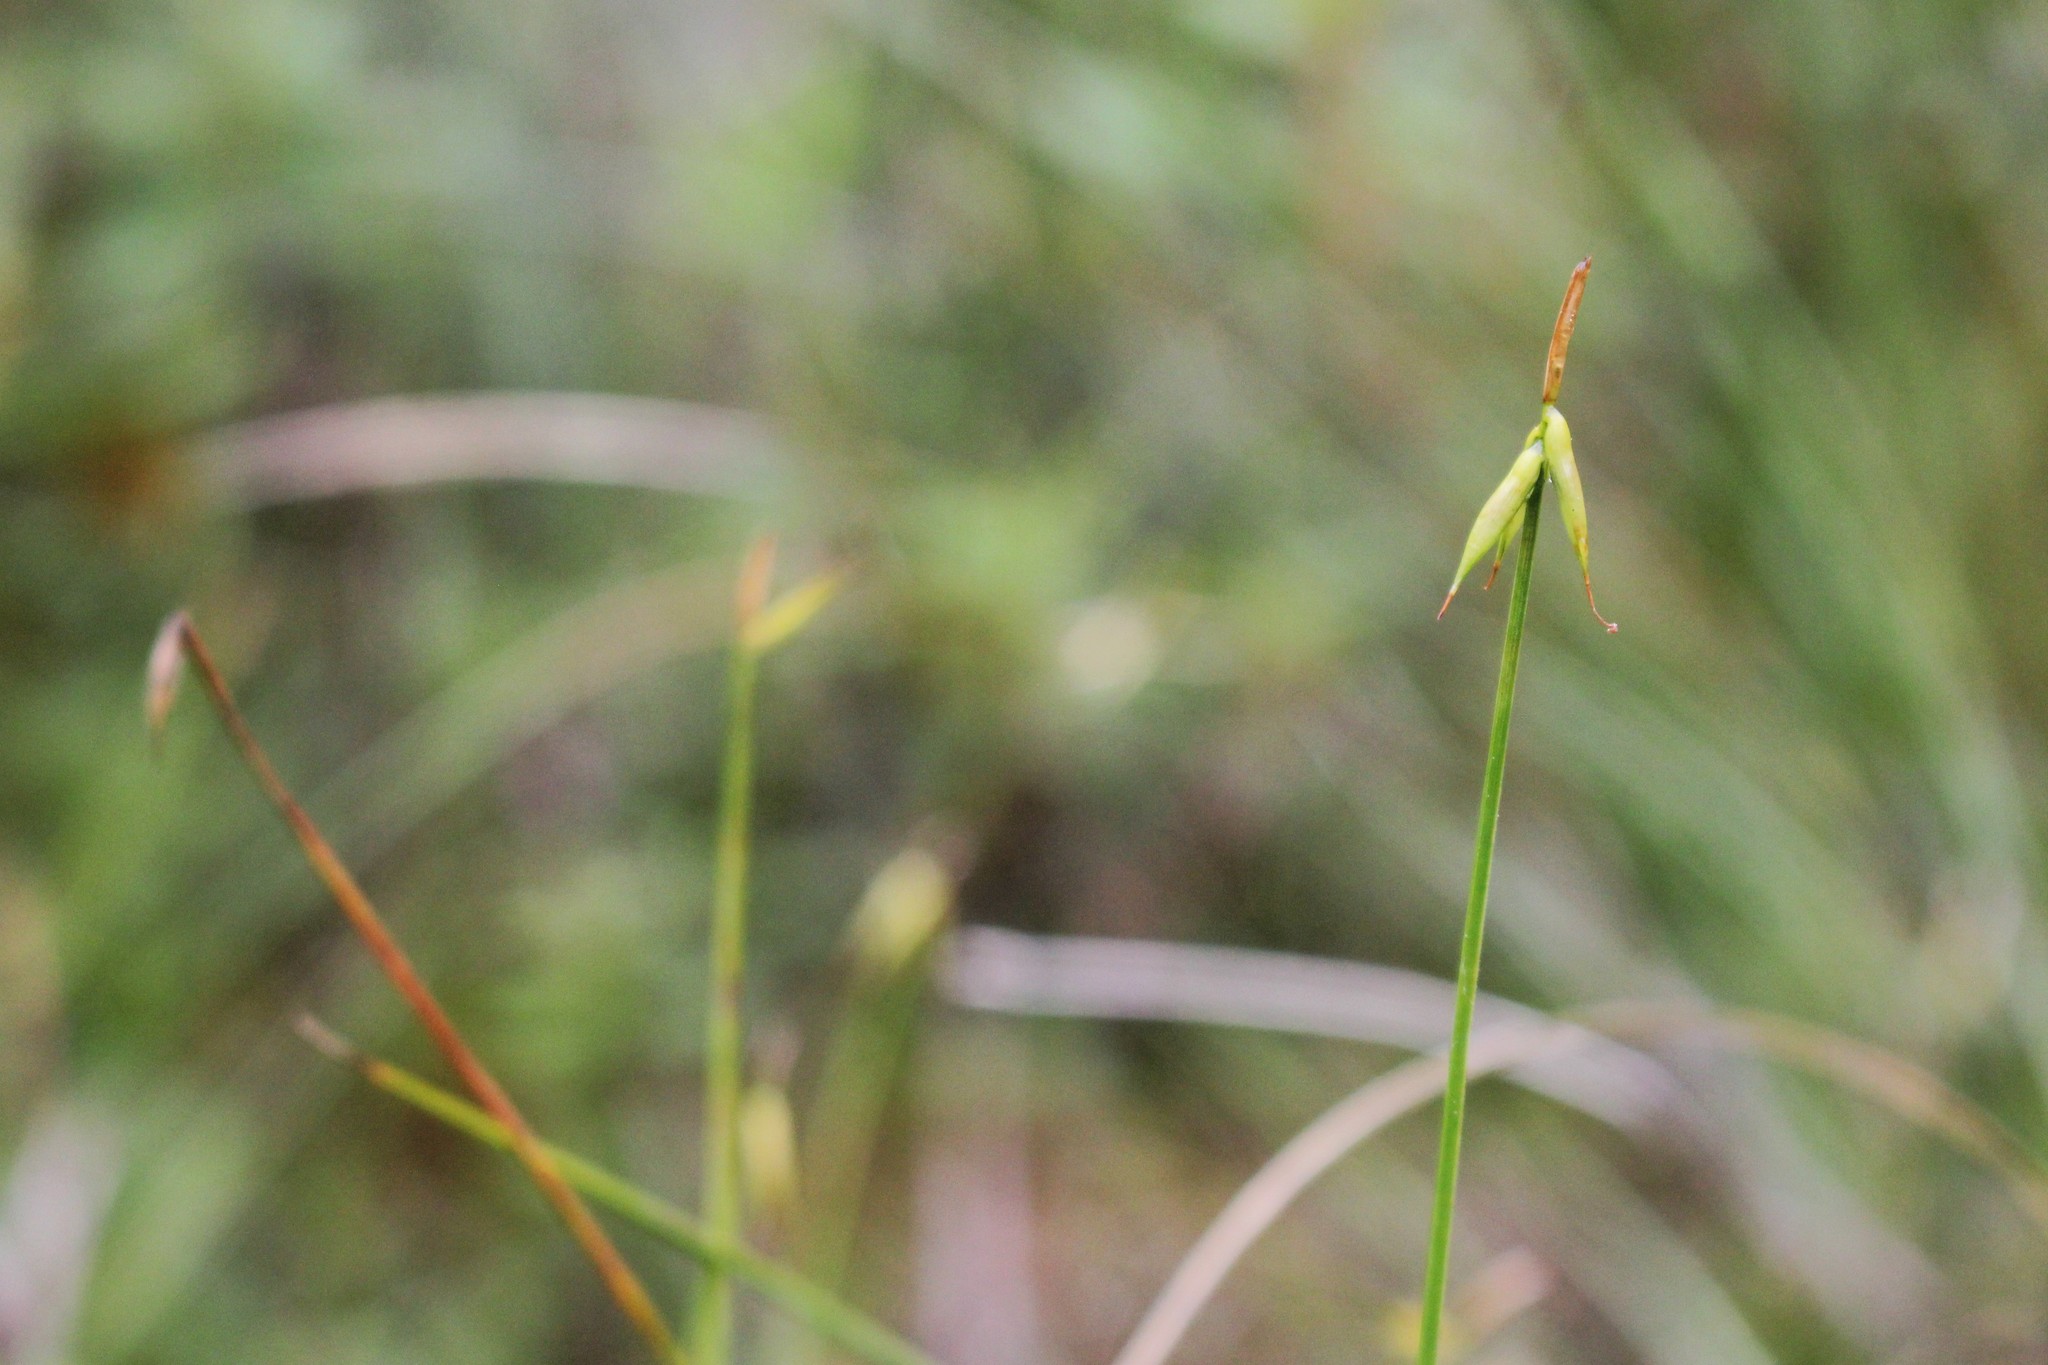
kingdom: Plantae
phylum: Tracheophyta
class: Liliopsida
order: Poales
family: Cyperaceae
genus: Carex
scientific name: Carex pauciflora
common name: Few-flowered sedge
